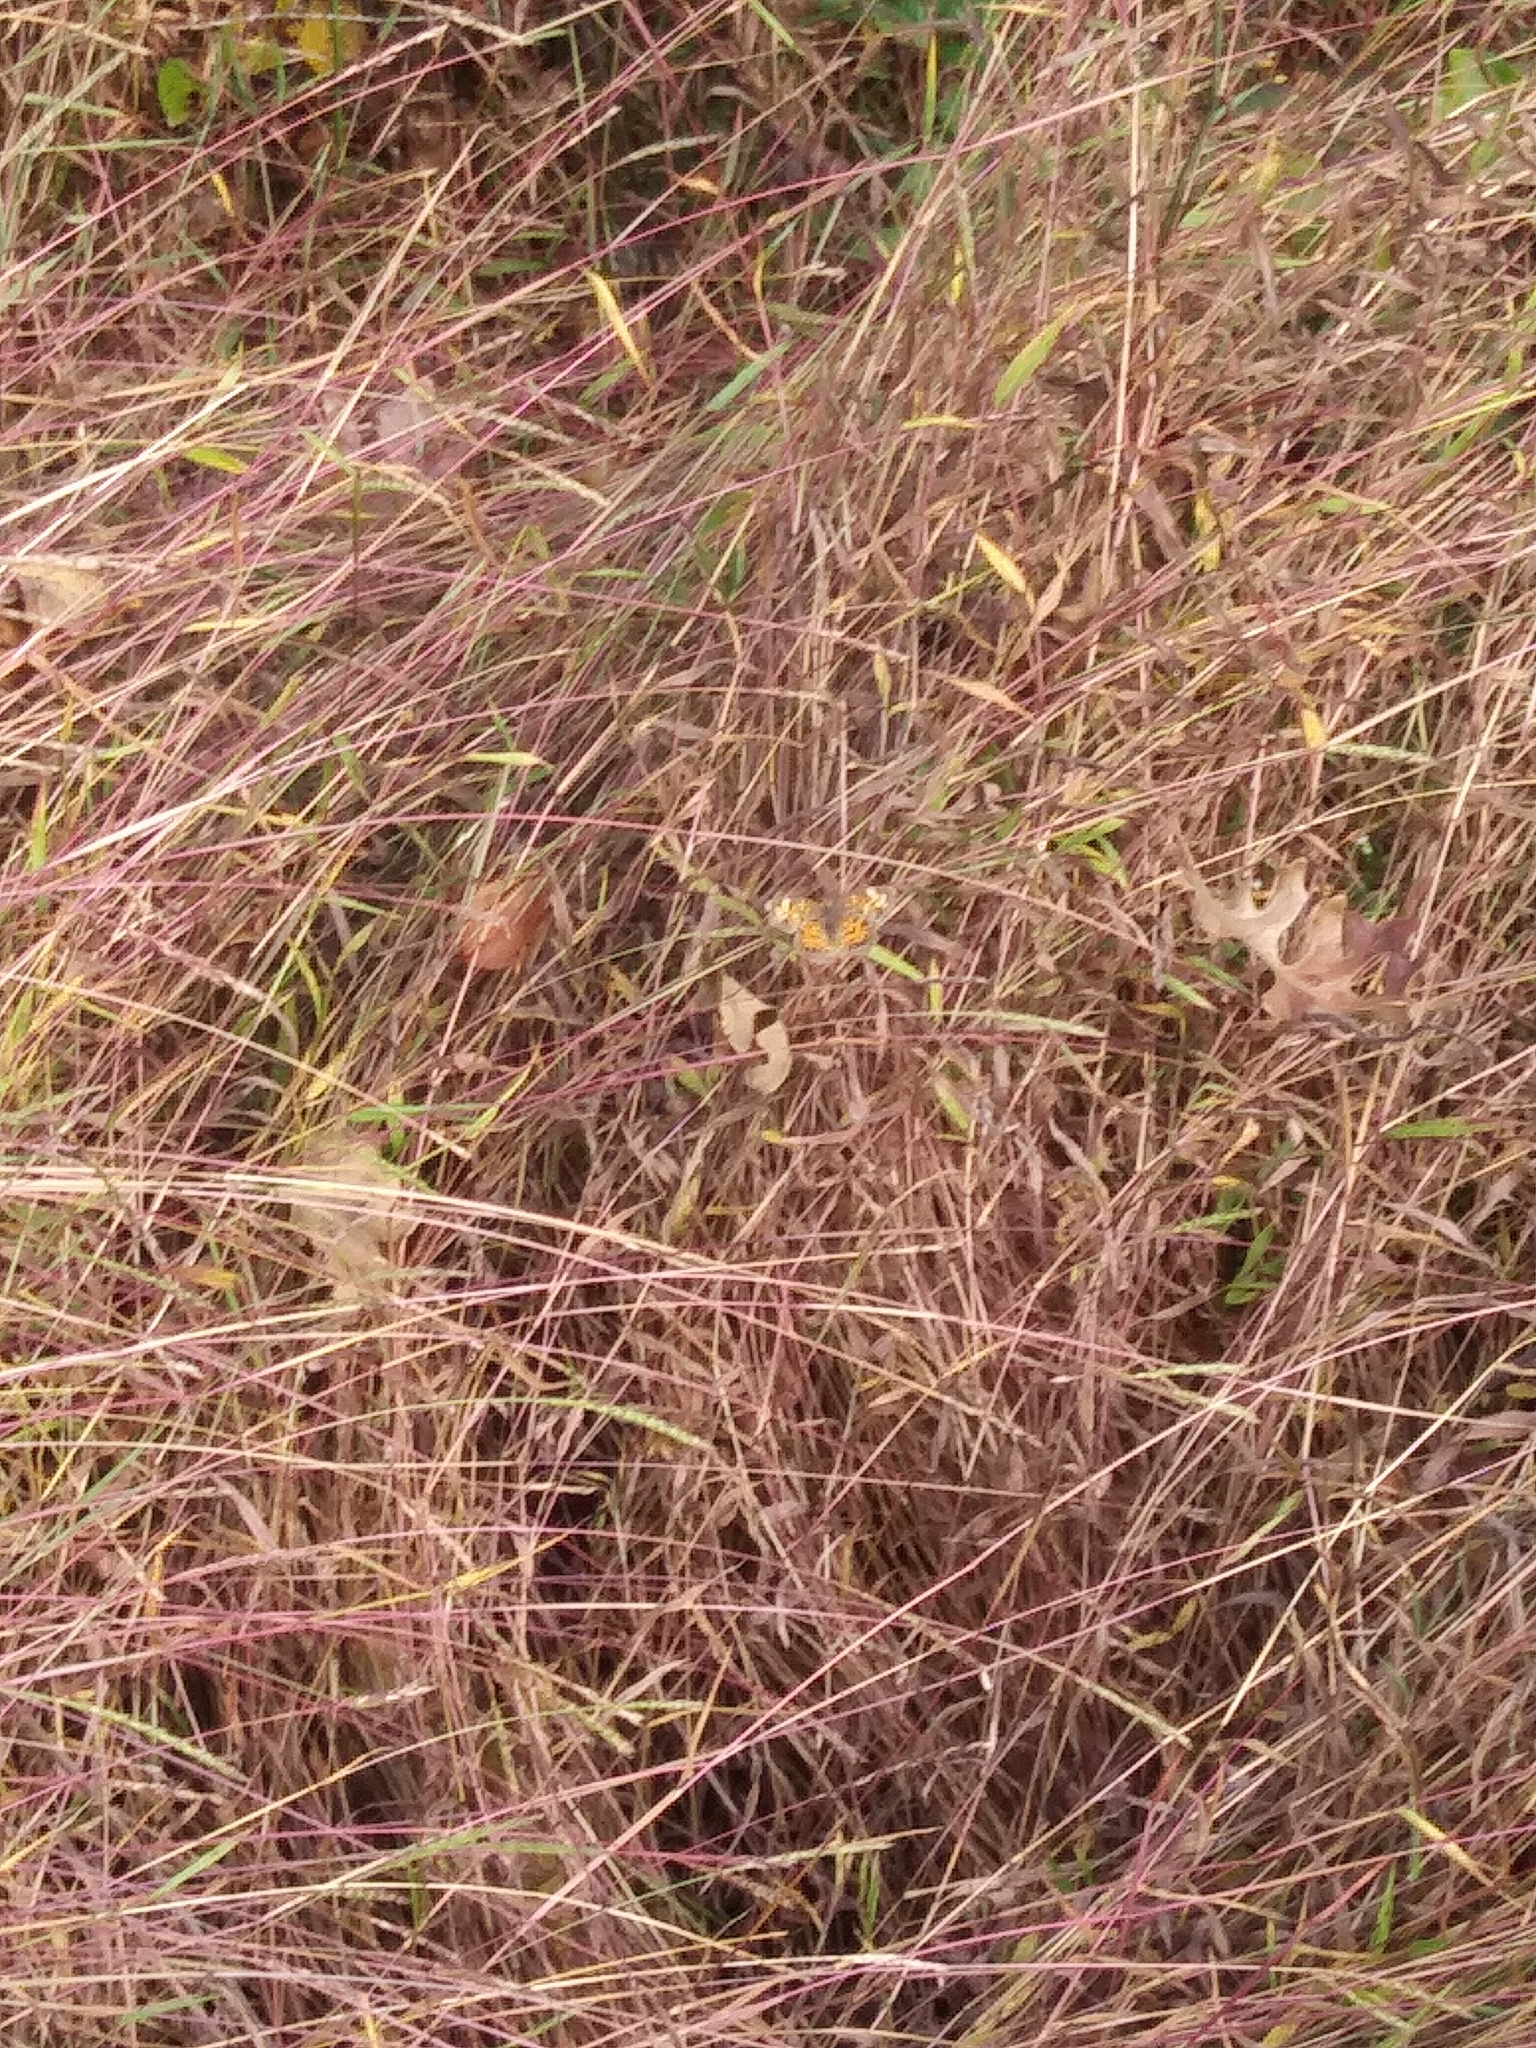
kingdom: Animalia
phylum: Arthropoda
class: Insecta
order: Lepidoptera
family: Nymphalidae
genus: Phyciodes
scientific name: Phyciodes tharos
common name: Pearl crescent
